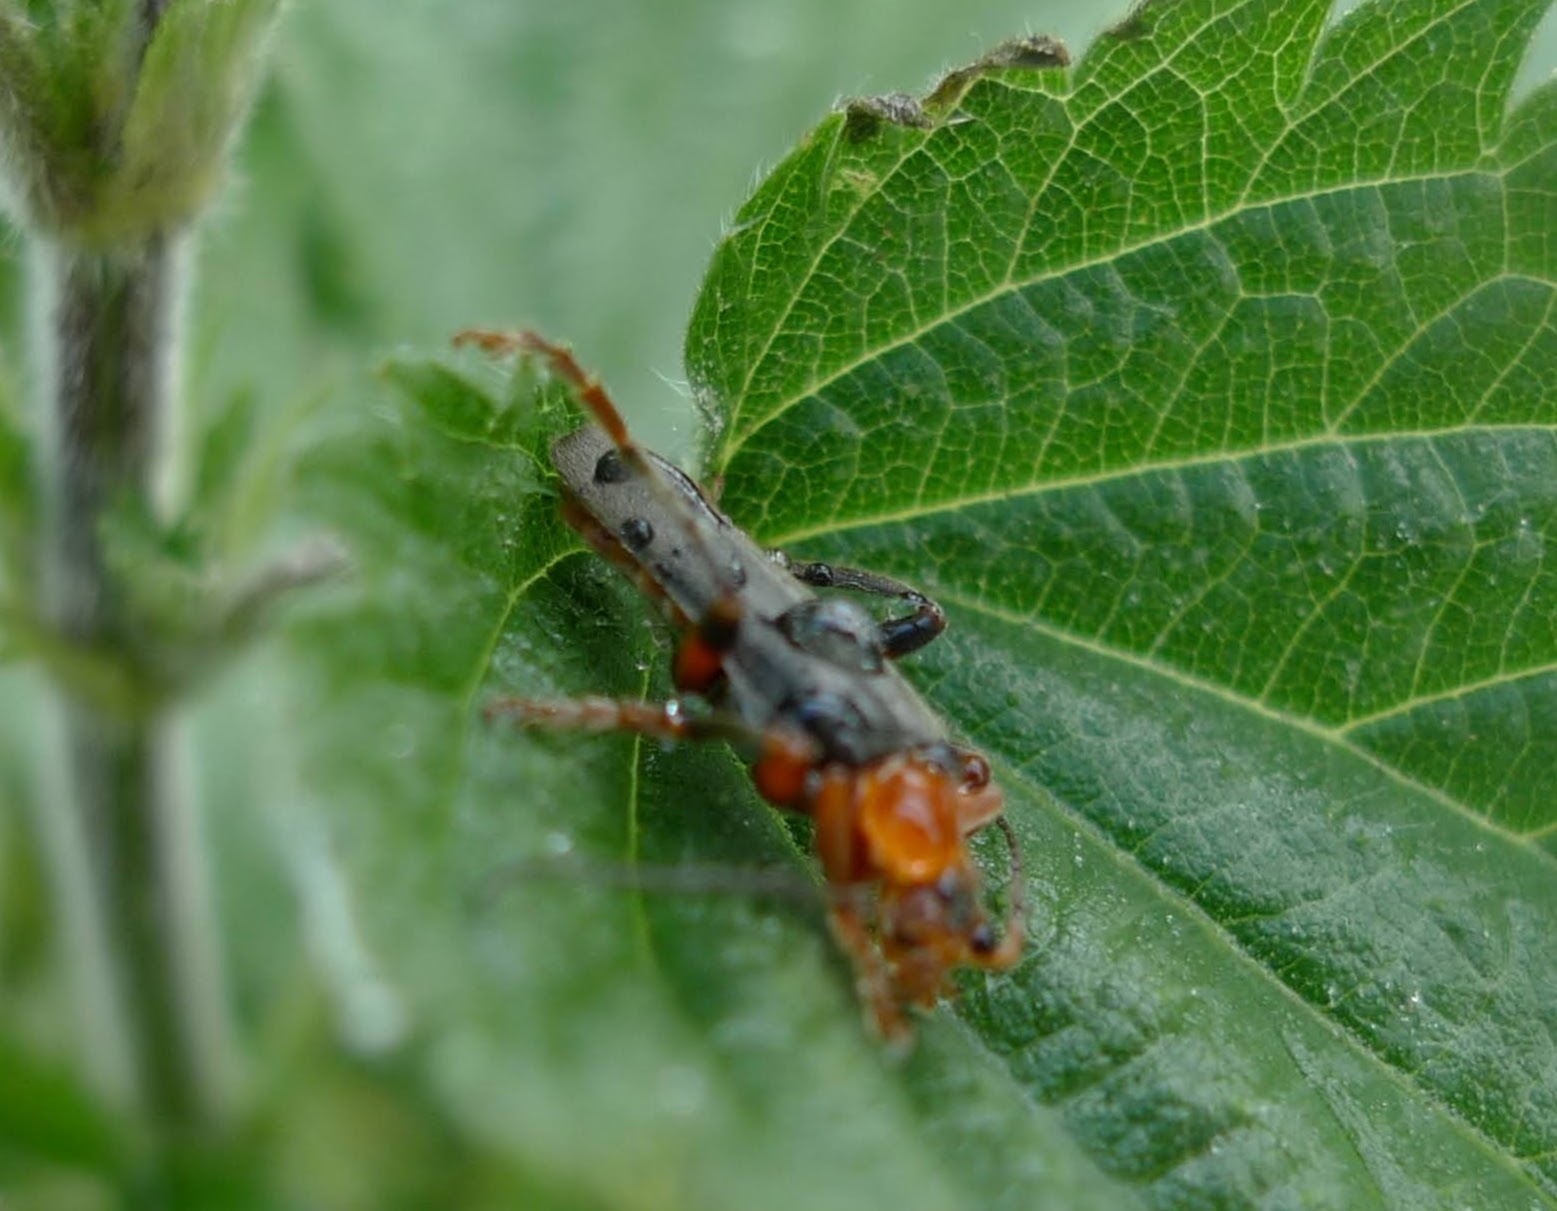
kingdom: Animalia
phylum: Arthropoda
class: Insecta
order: Coleoptera
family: Cantharidae
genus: Cantharis
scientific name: Cantharis livida
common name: Livid soldier beetle
